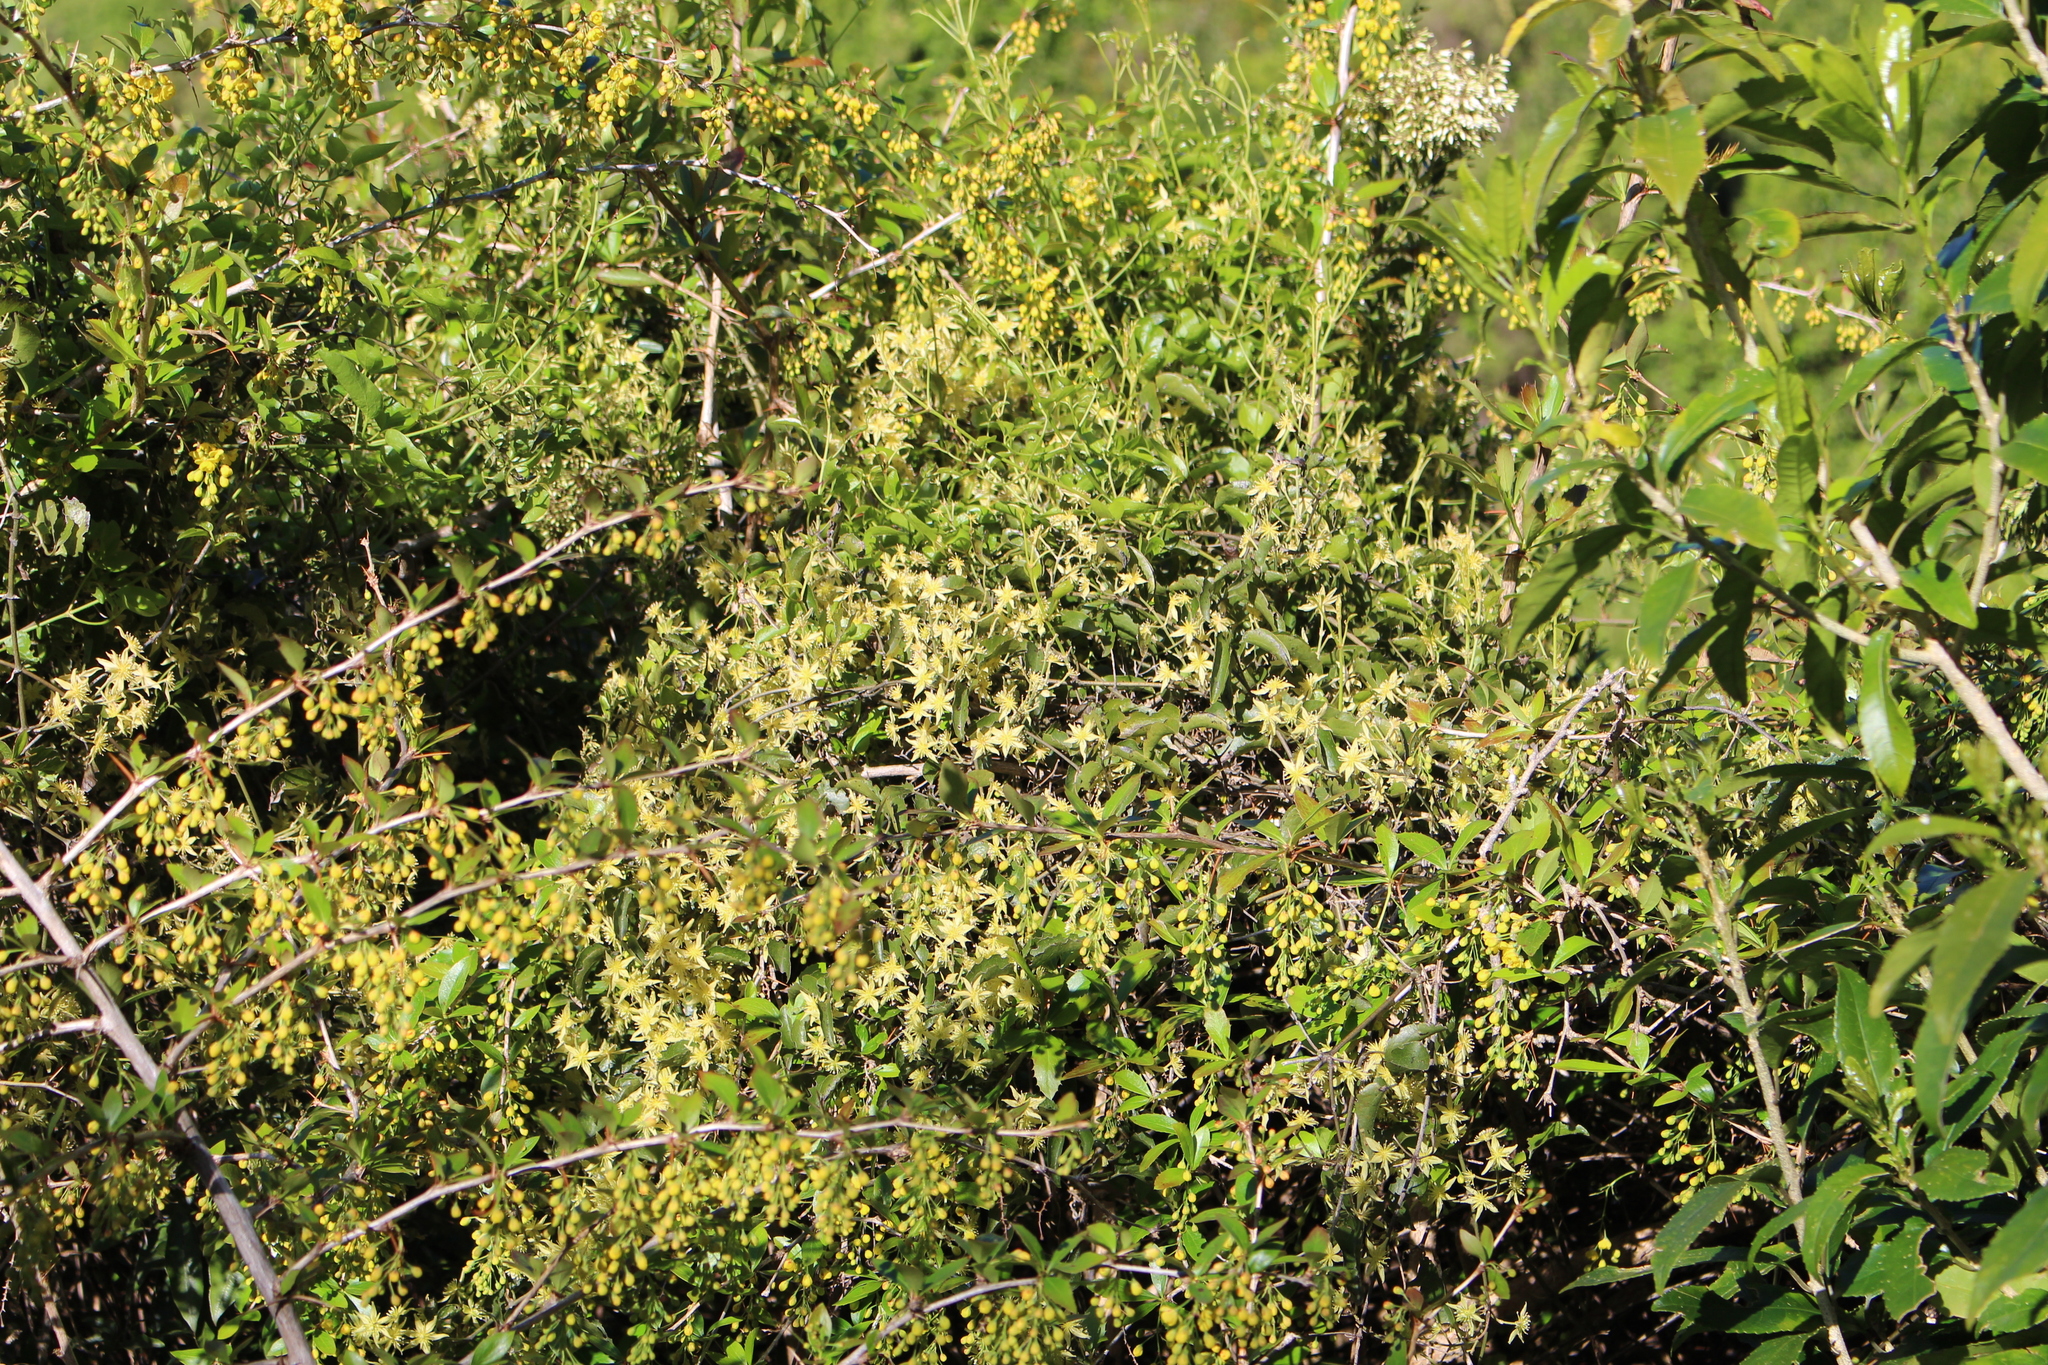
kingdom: Plantae
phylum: Tracheophyta
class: Magnoliopsida
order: Ranunculales
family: Ranunculaceae
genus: Clematis
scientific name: Clematis foetida
